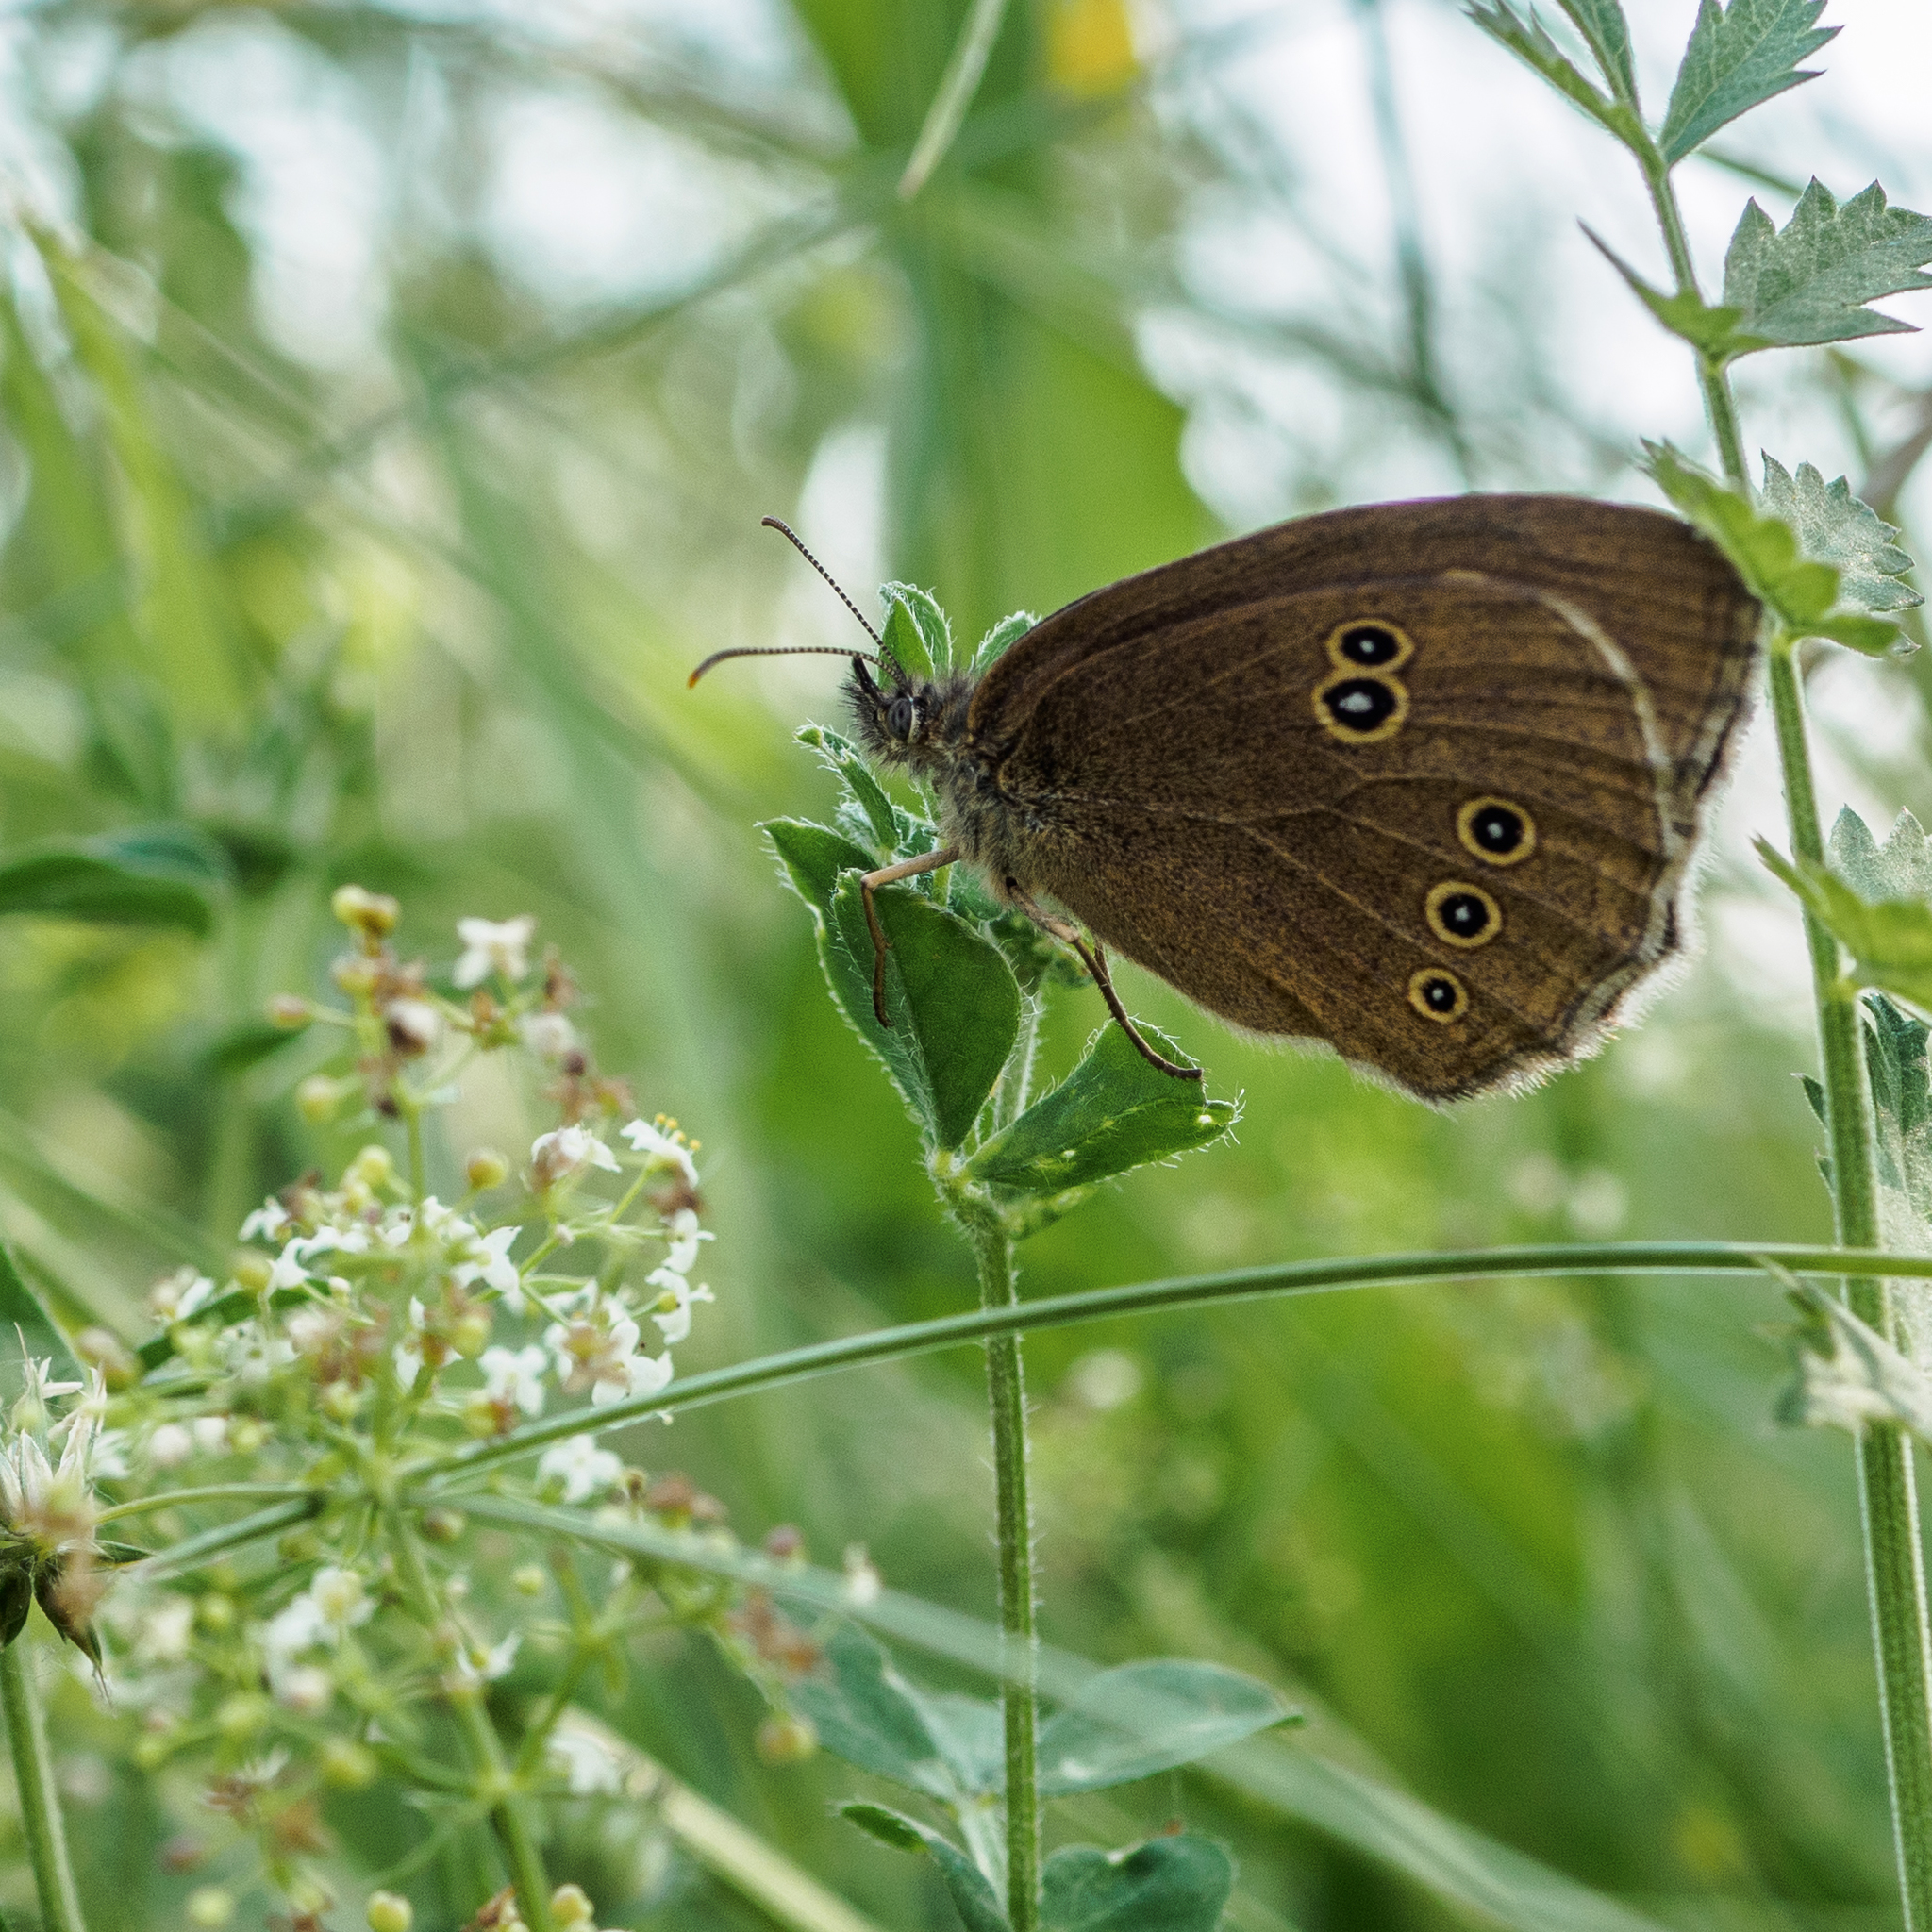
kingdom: Animalia
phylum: Arthropoda
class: Insecta
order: Lepidoptera
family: Nymphalidae
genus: Aphantopus
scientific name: Aphantopus hyperantus
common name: Ringlet
